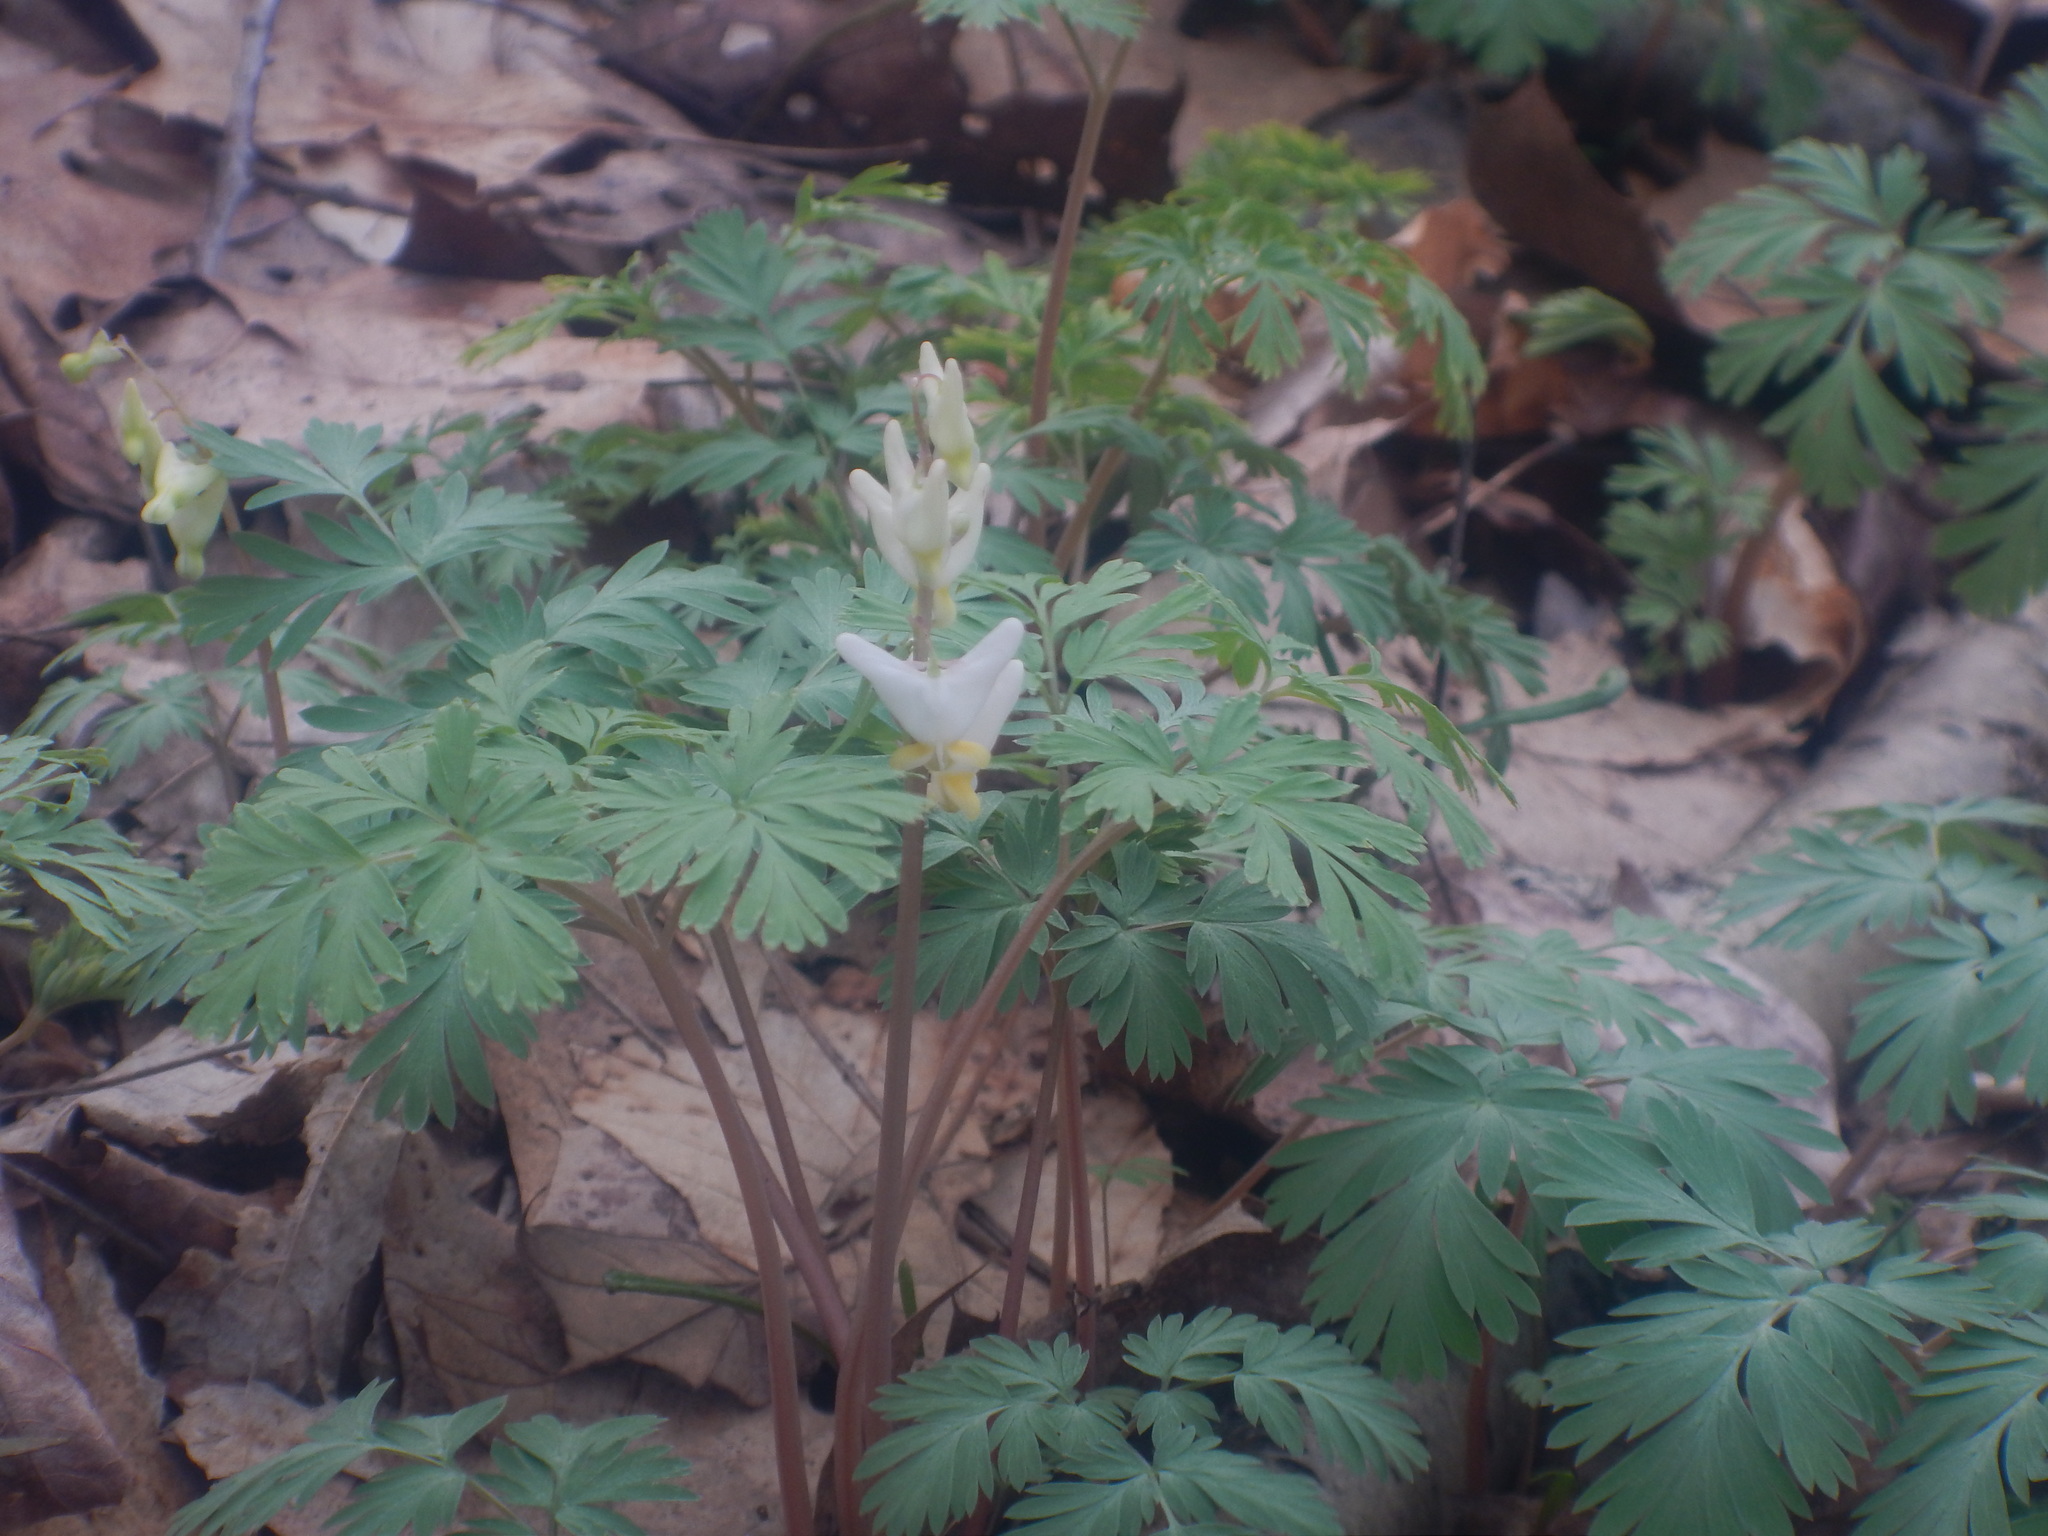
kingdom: Plantae
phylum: Tracheophyta
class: Magnoliopsida
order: Ranunculales
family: Papaveraceae
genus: Dicentra
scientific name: Dicentra cucullaria
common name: Dutchman's breeches
